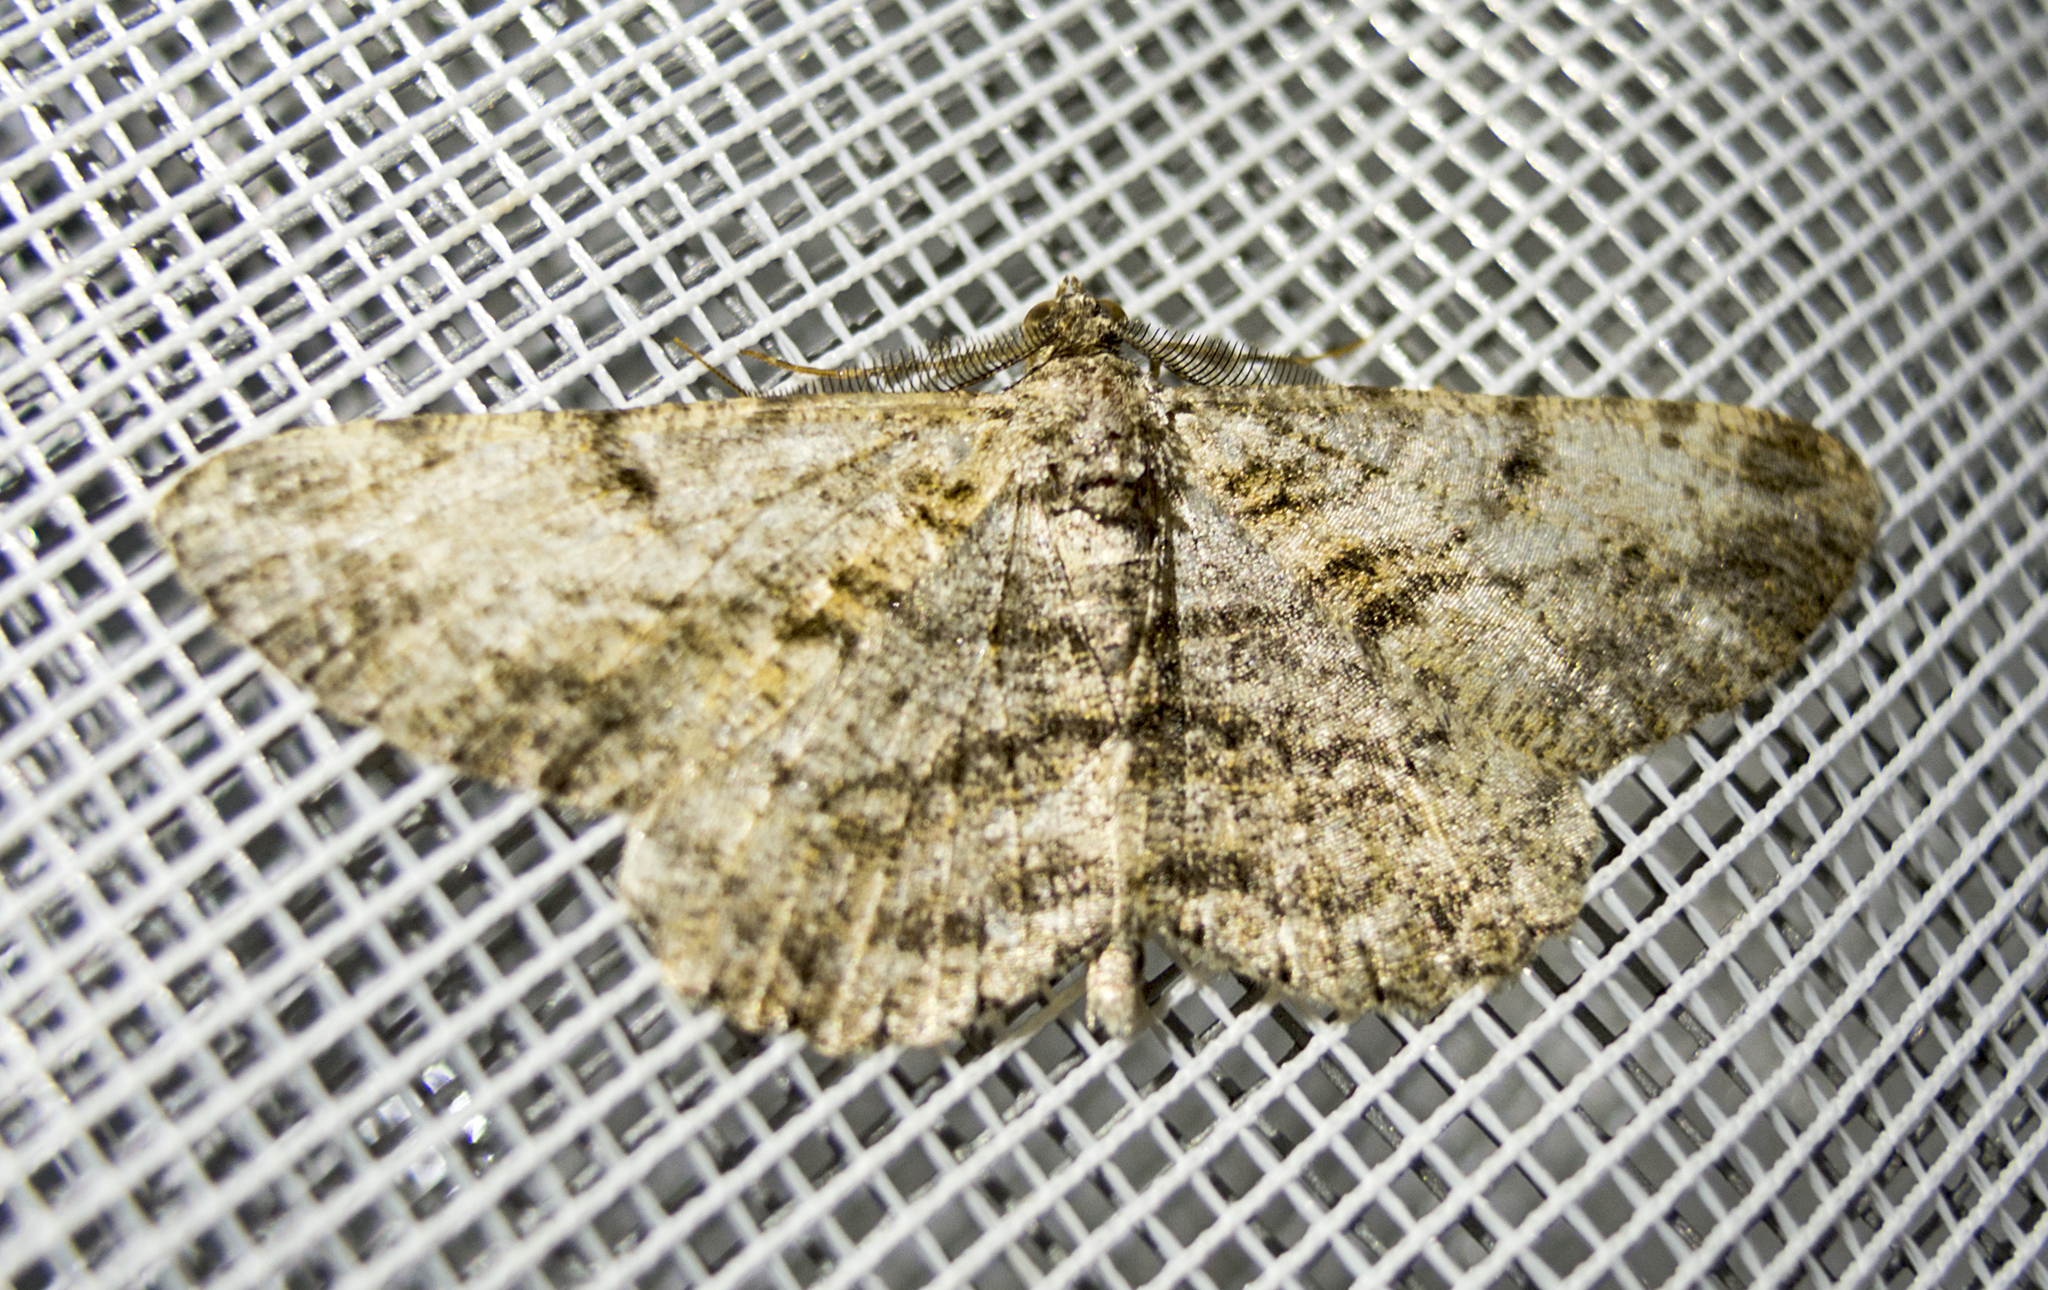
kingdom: Animalia
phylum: Arthropoda
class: Insecta
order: Lepidoptera
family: Geometridae
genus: Peribatodes
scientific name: Peribatodes rhomboidaria
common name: Willow beauty
